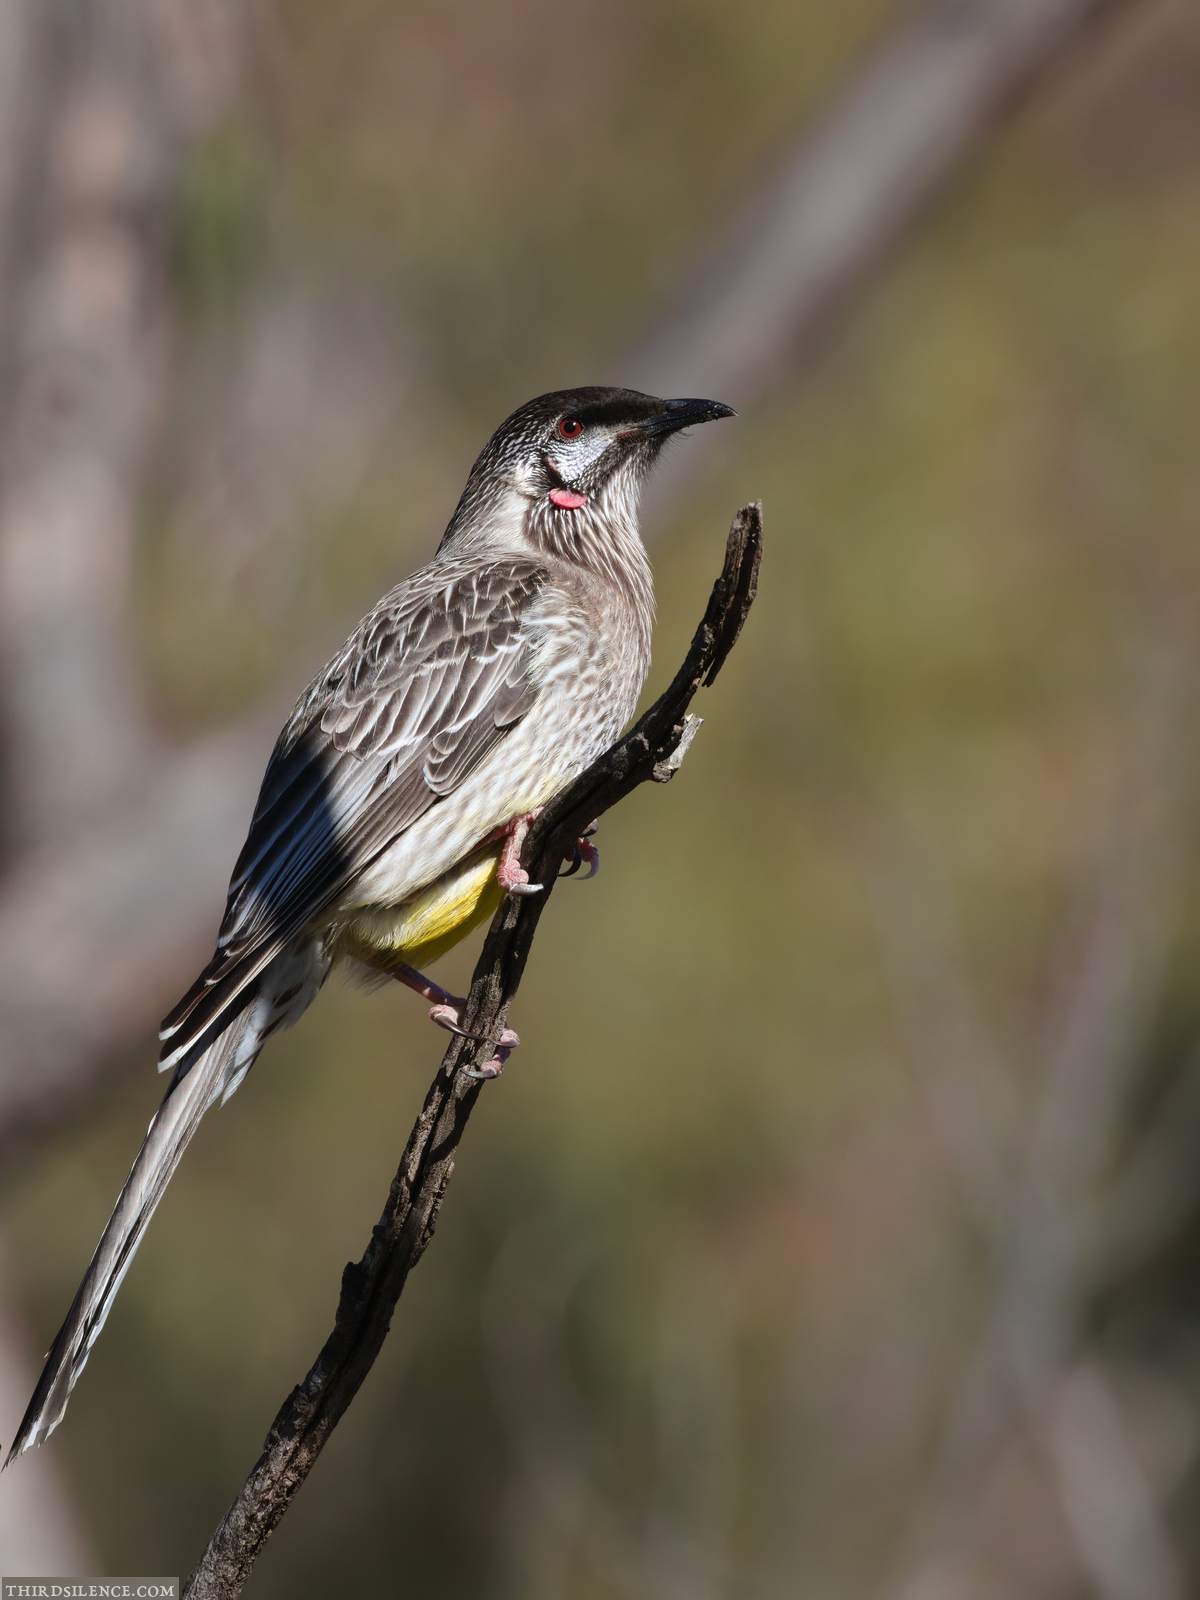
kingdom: Animalia
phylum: Chordata
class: Aves
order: Passeriformes
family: Meliphagidae
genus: Anthochaera
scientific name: Anthochaera carunculata
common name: Red wattlebird
